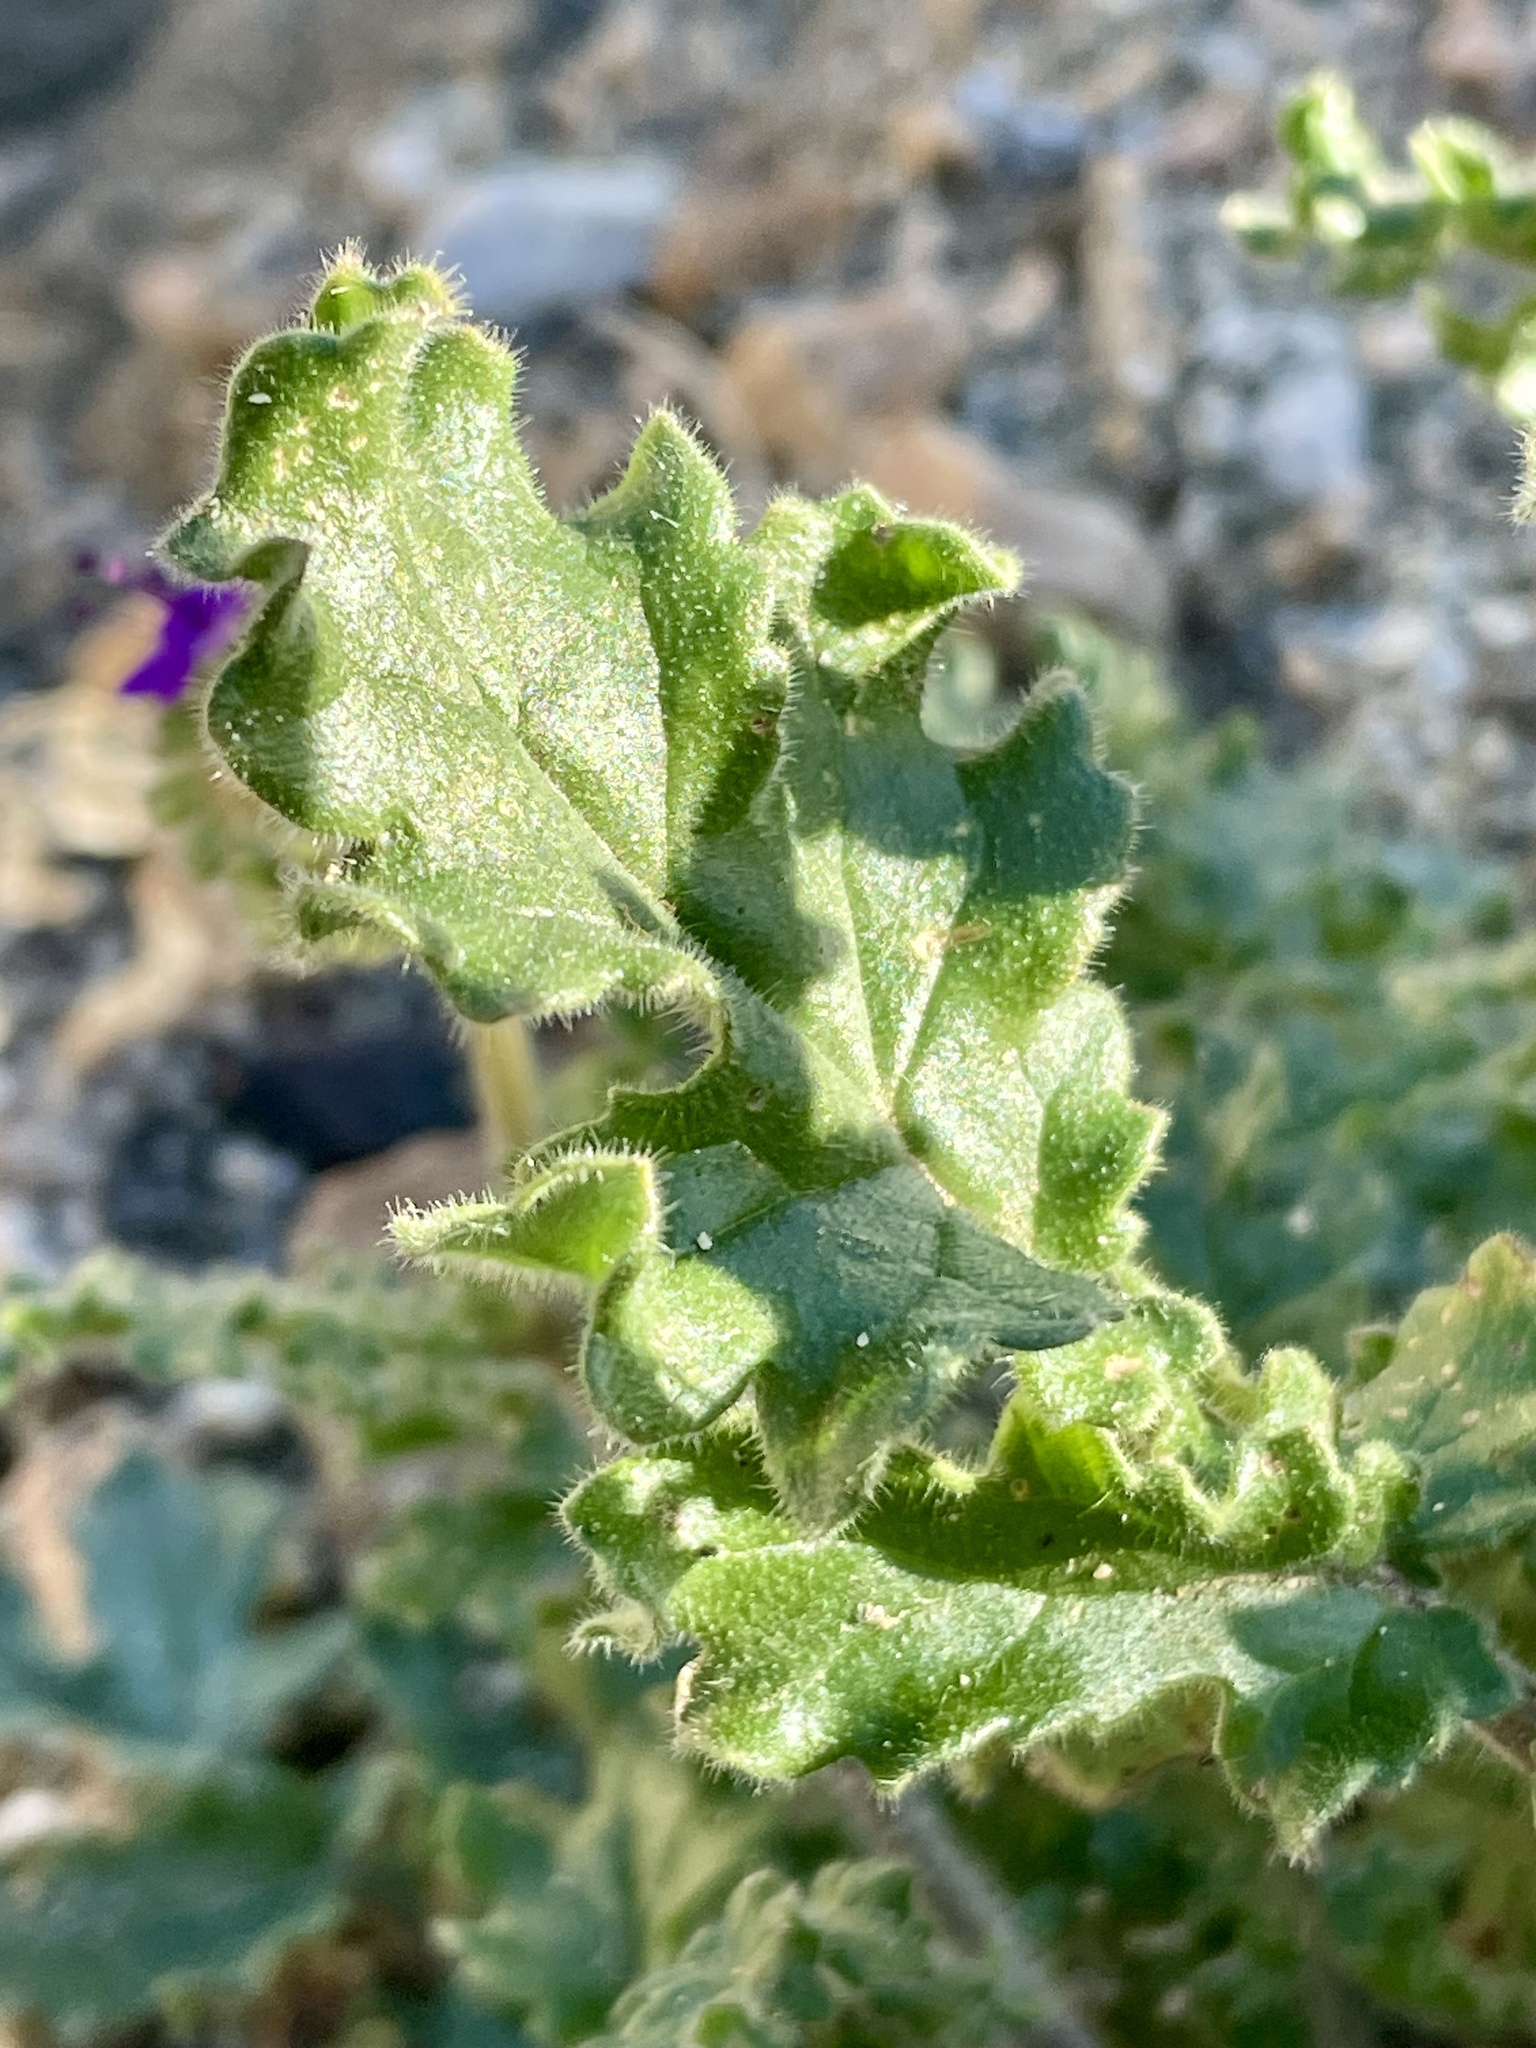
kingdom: Plantae
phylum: Tracheophyta
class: Magnoliopsida
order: Boraginales
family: Hydrophyllaceae
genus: Phacelia
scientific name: Phacelia crenulata
